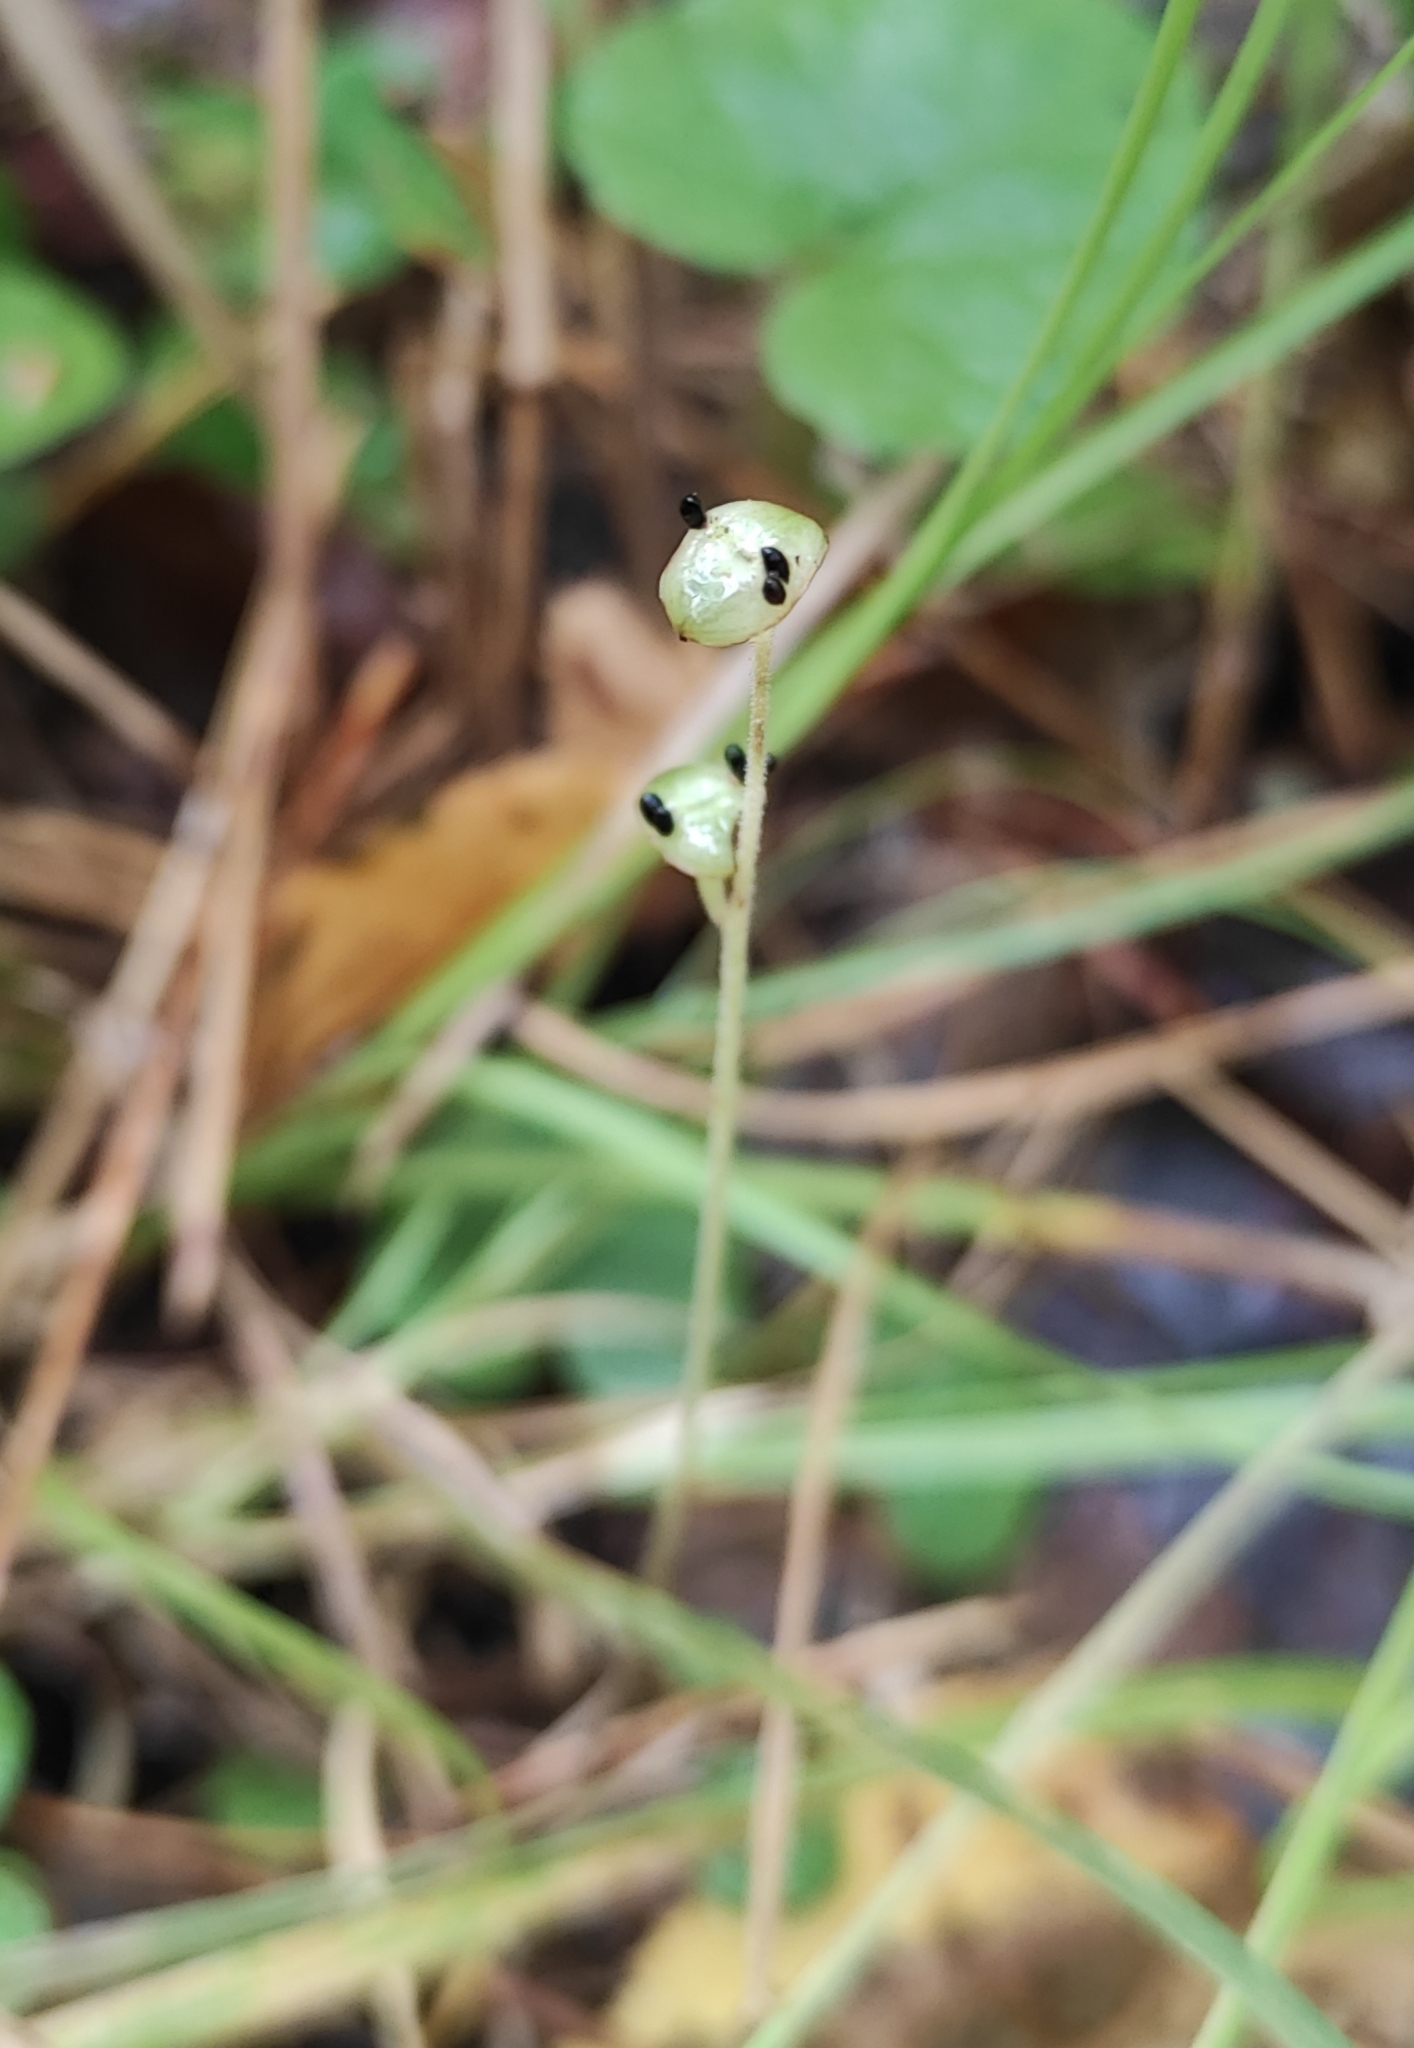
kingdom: Plantae
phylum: Tracheophyta
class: Magnoliopsida
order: Saxifragales
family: Saxifragaceae
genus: Mitella
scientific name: Mitella nuda
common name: Bare-stemmed bishop's-cap
